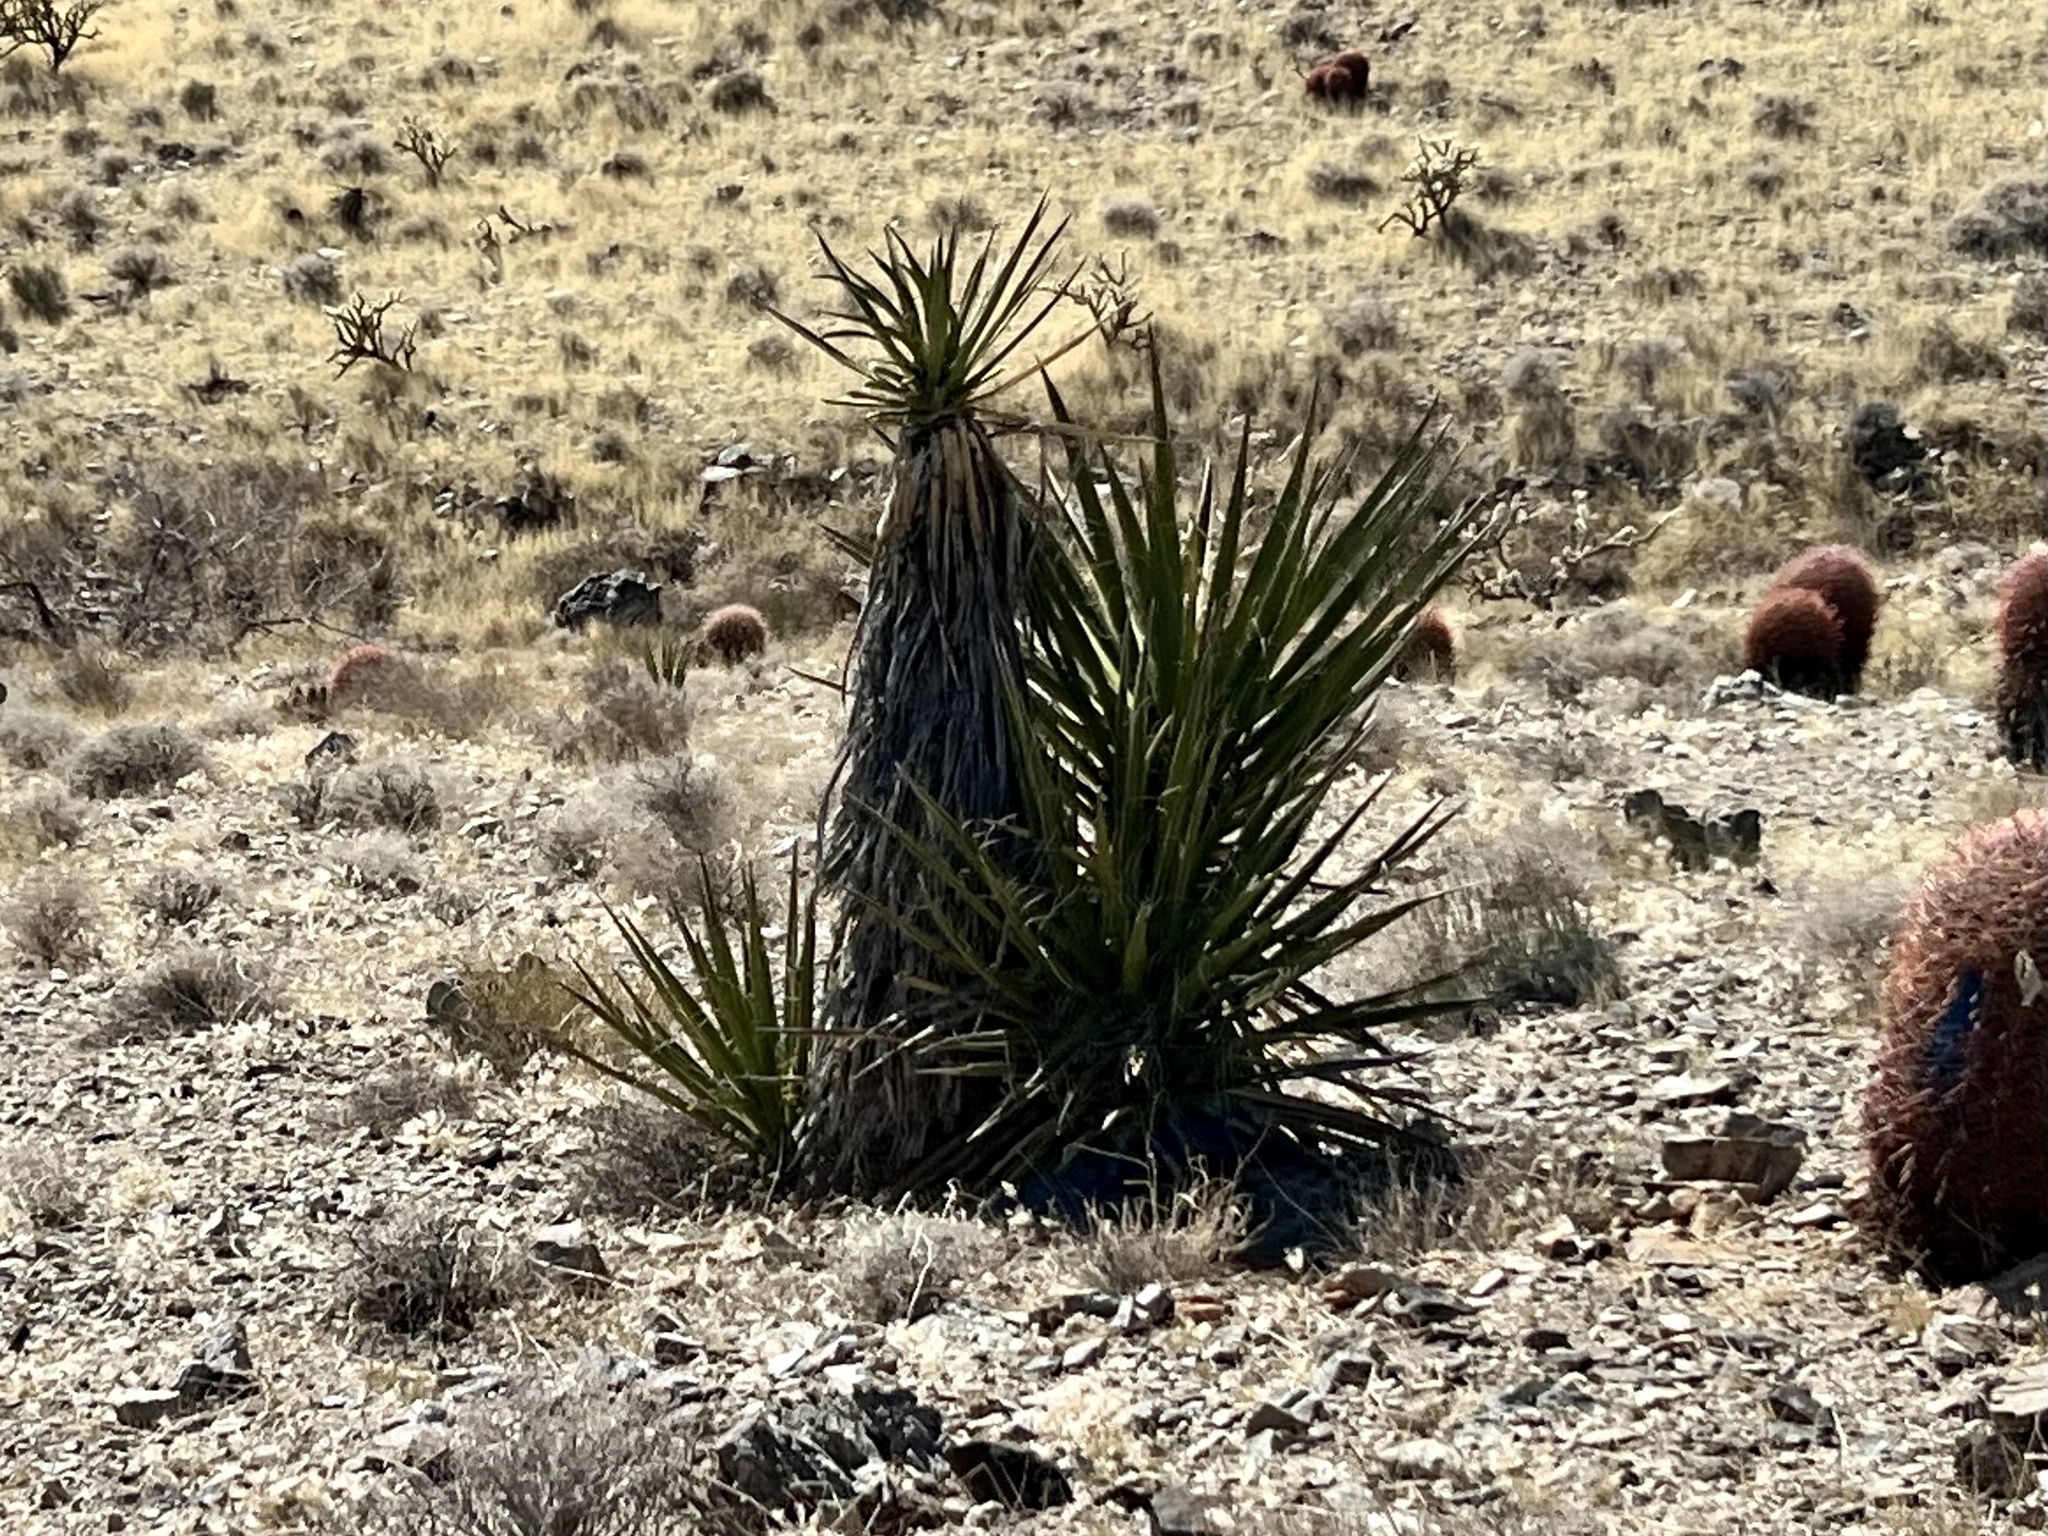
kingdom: Plantae
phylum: Tracheophyta
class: Liliopsida
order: Asparagales
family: Asparagaceae
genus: Yucca
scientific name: Yucca schidigera
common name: Mojave yucca
